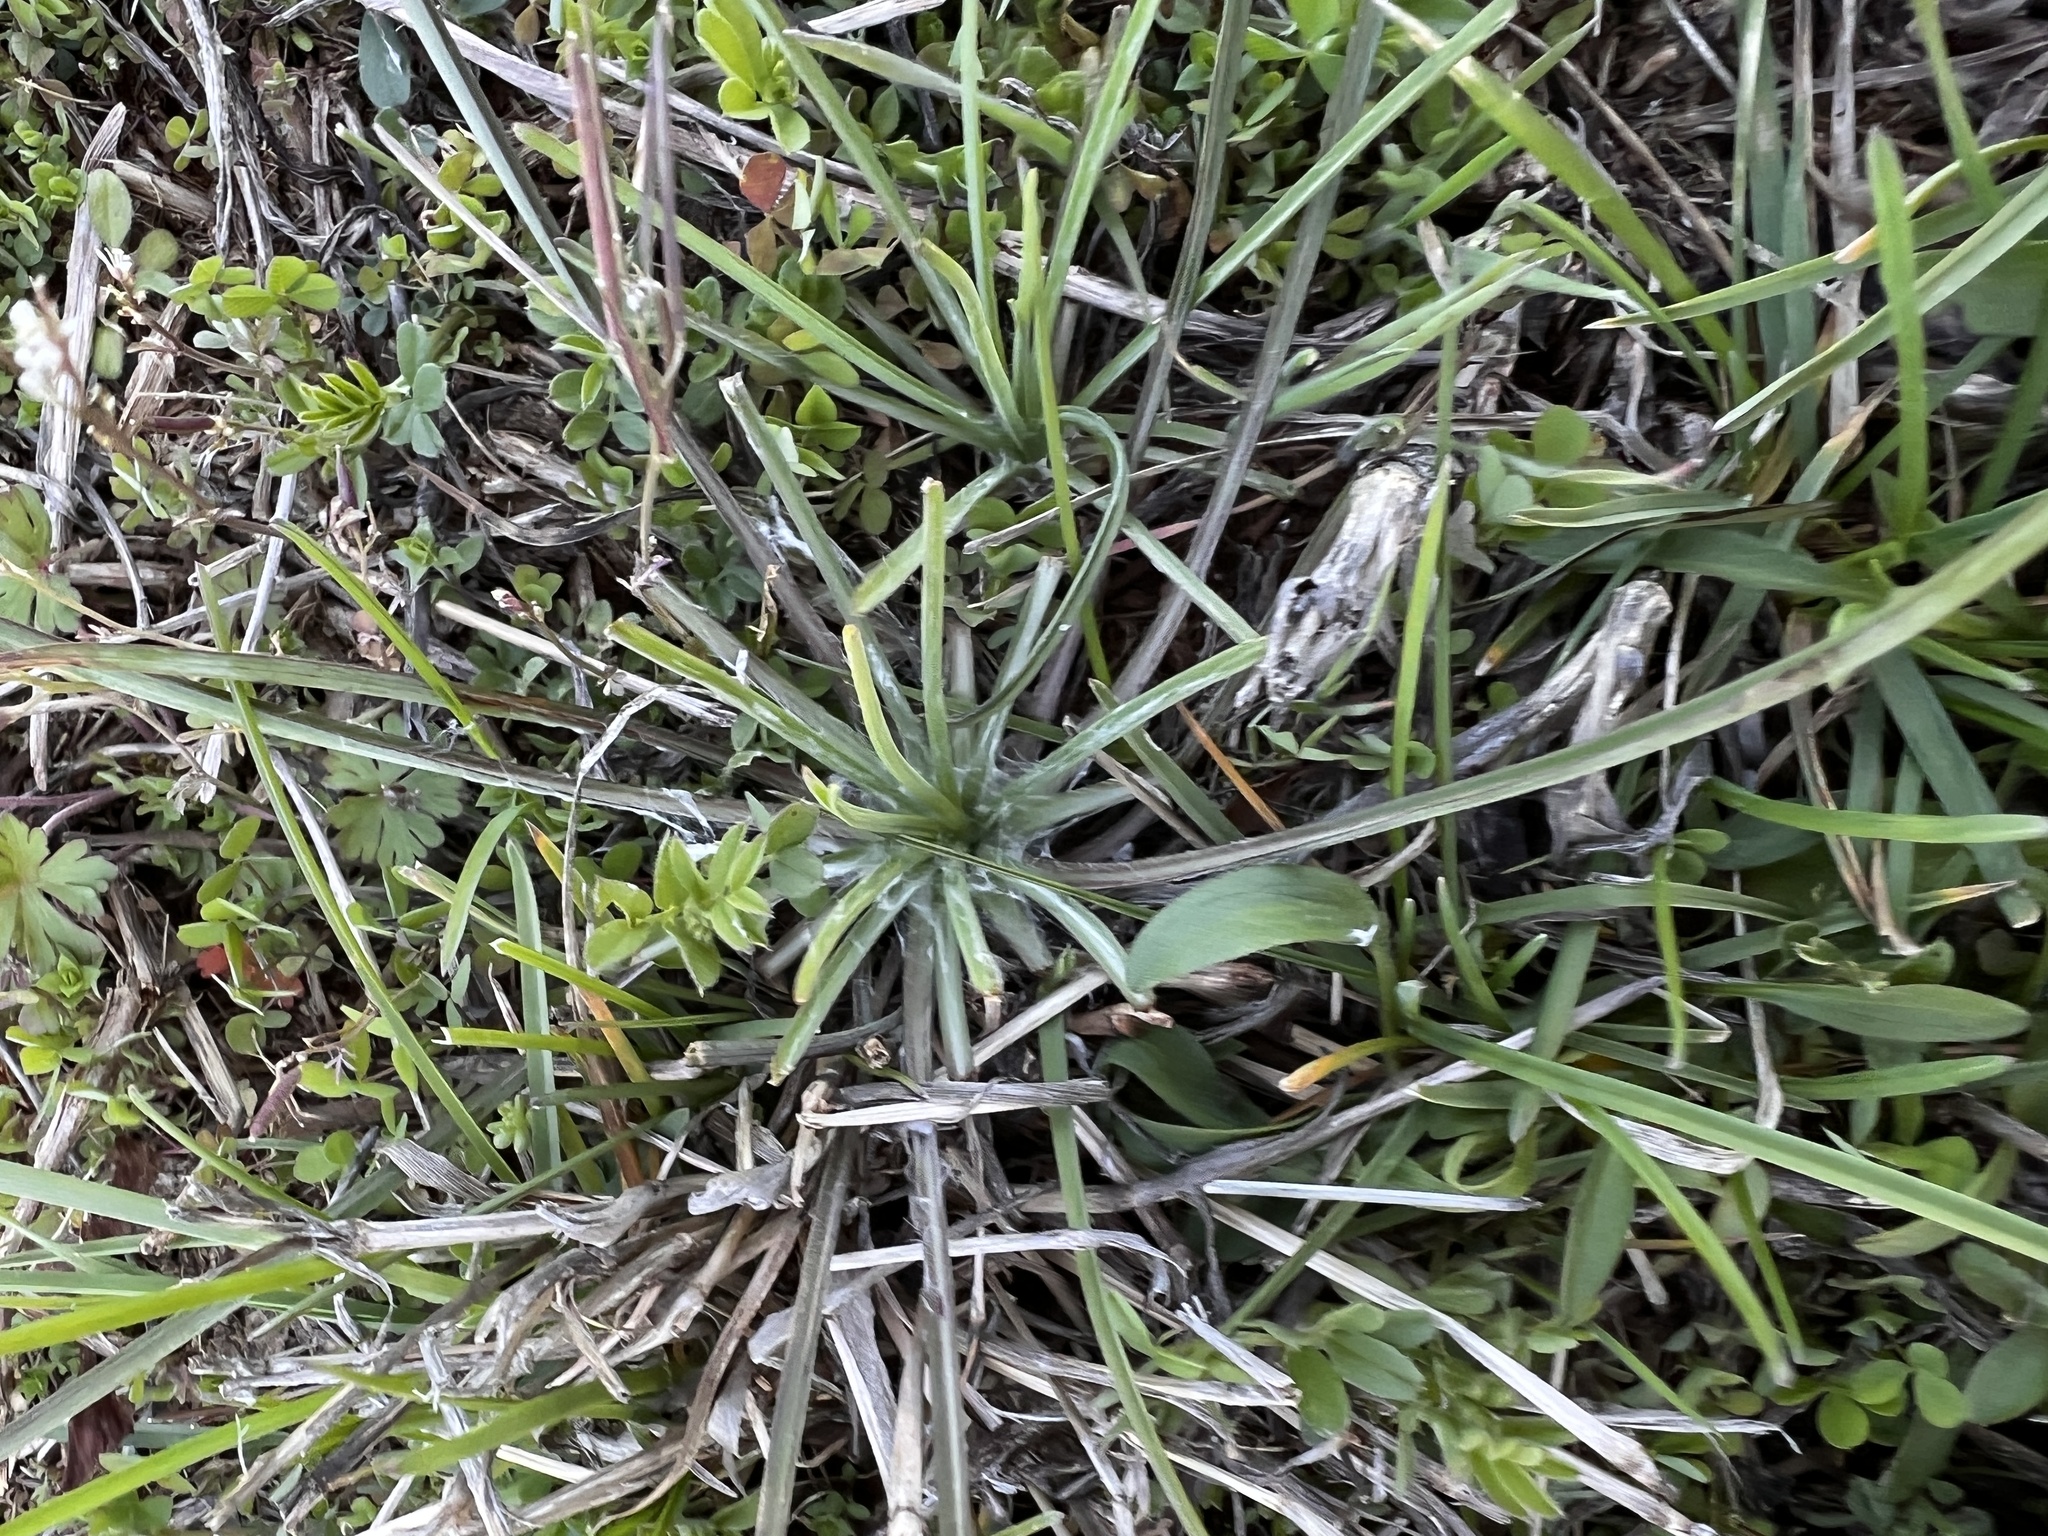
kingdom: Plantae
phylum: Tracheophyta
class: Magnoliopsida
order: Asterales
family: Asteraceae
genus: Tragopogon
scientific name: Tragopogon dubius
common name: Yellow salsify
